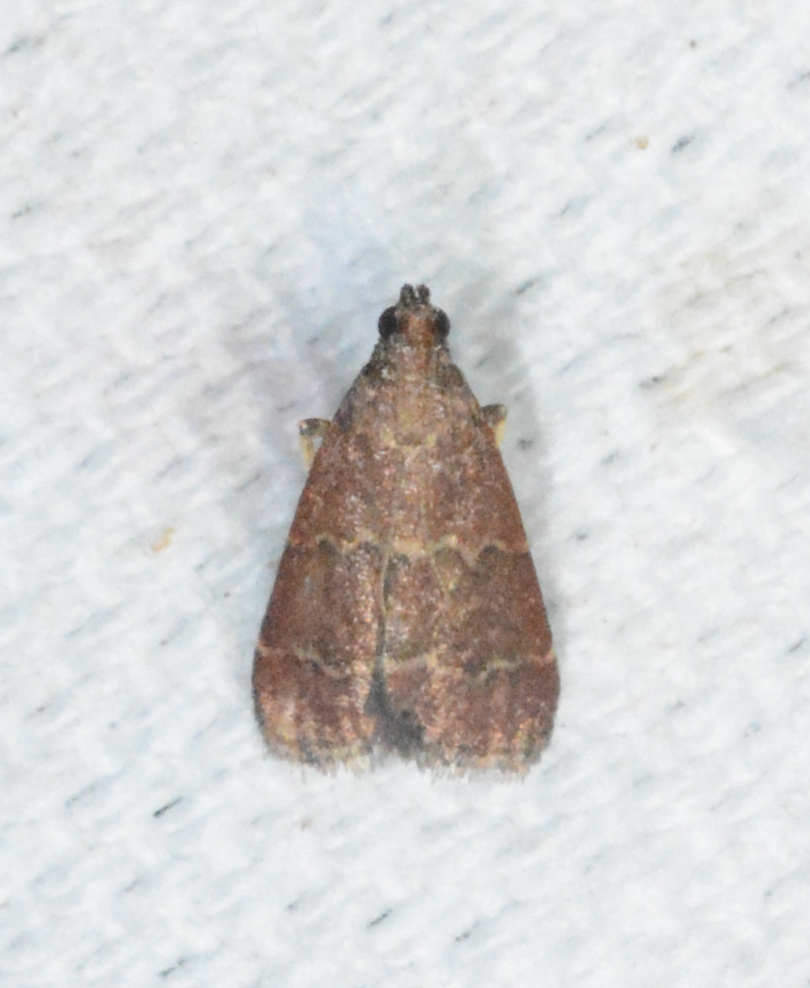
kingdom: Animalia
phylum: Arthropoda
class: Insecta
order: Lepidoptera
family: Pyralidae
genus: Arta
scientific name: Arta
